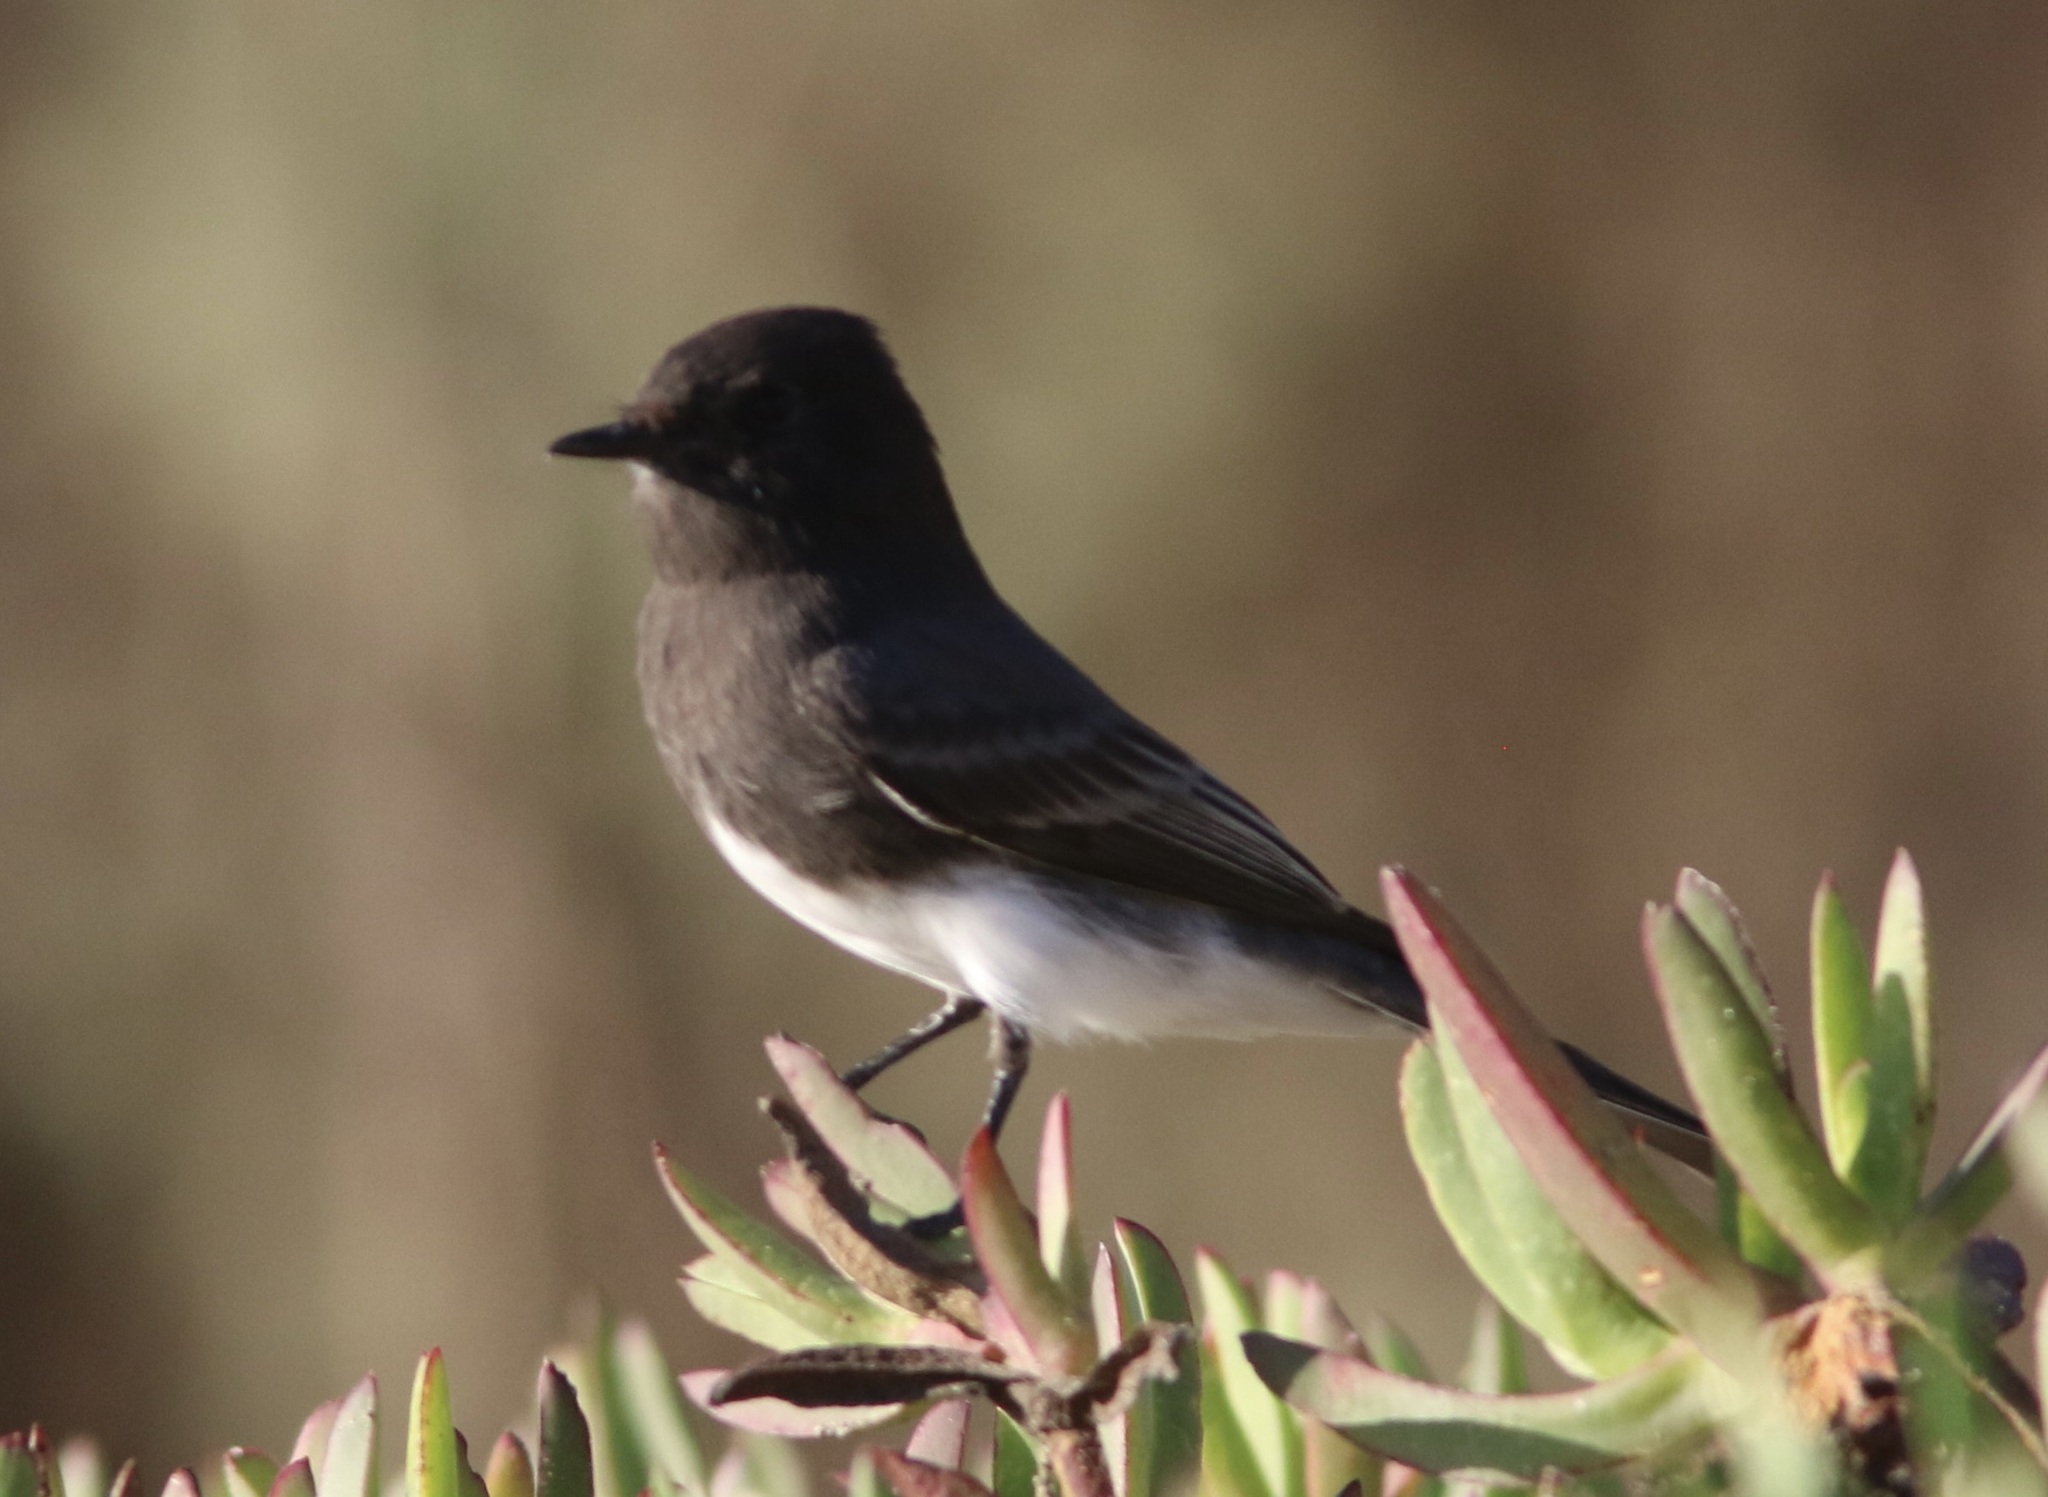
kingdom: Animalia
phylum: Chordata
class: Aves
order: Passeriformes
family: Tyrannidae
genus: Sayornis
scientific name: Sayornis nigricans
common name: Black phoebe
